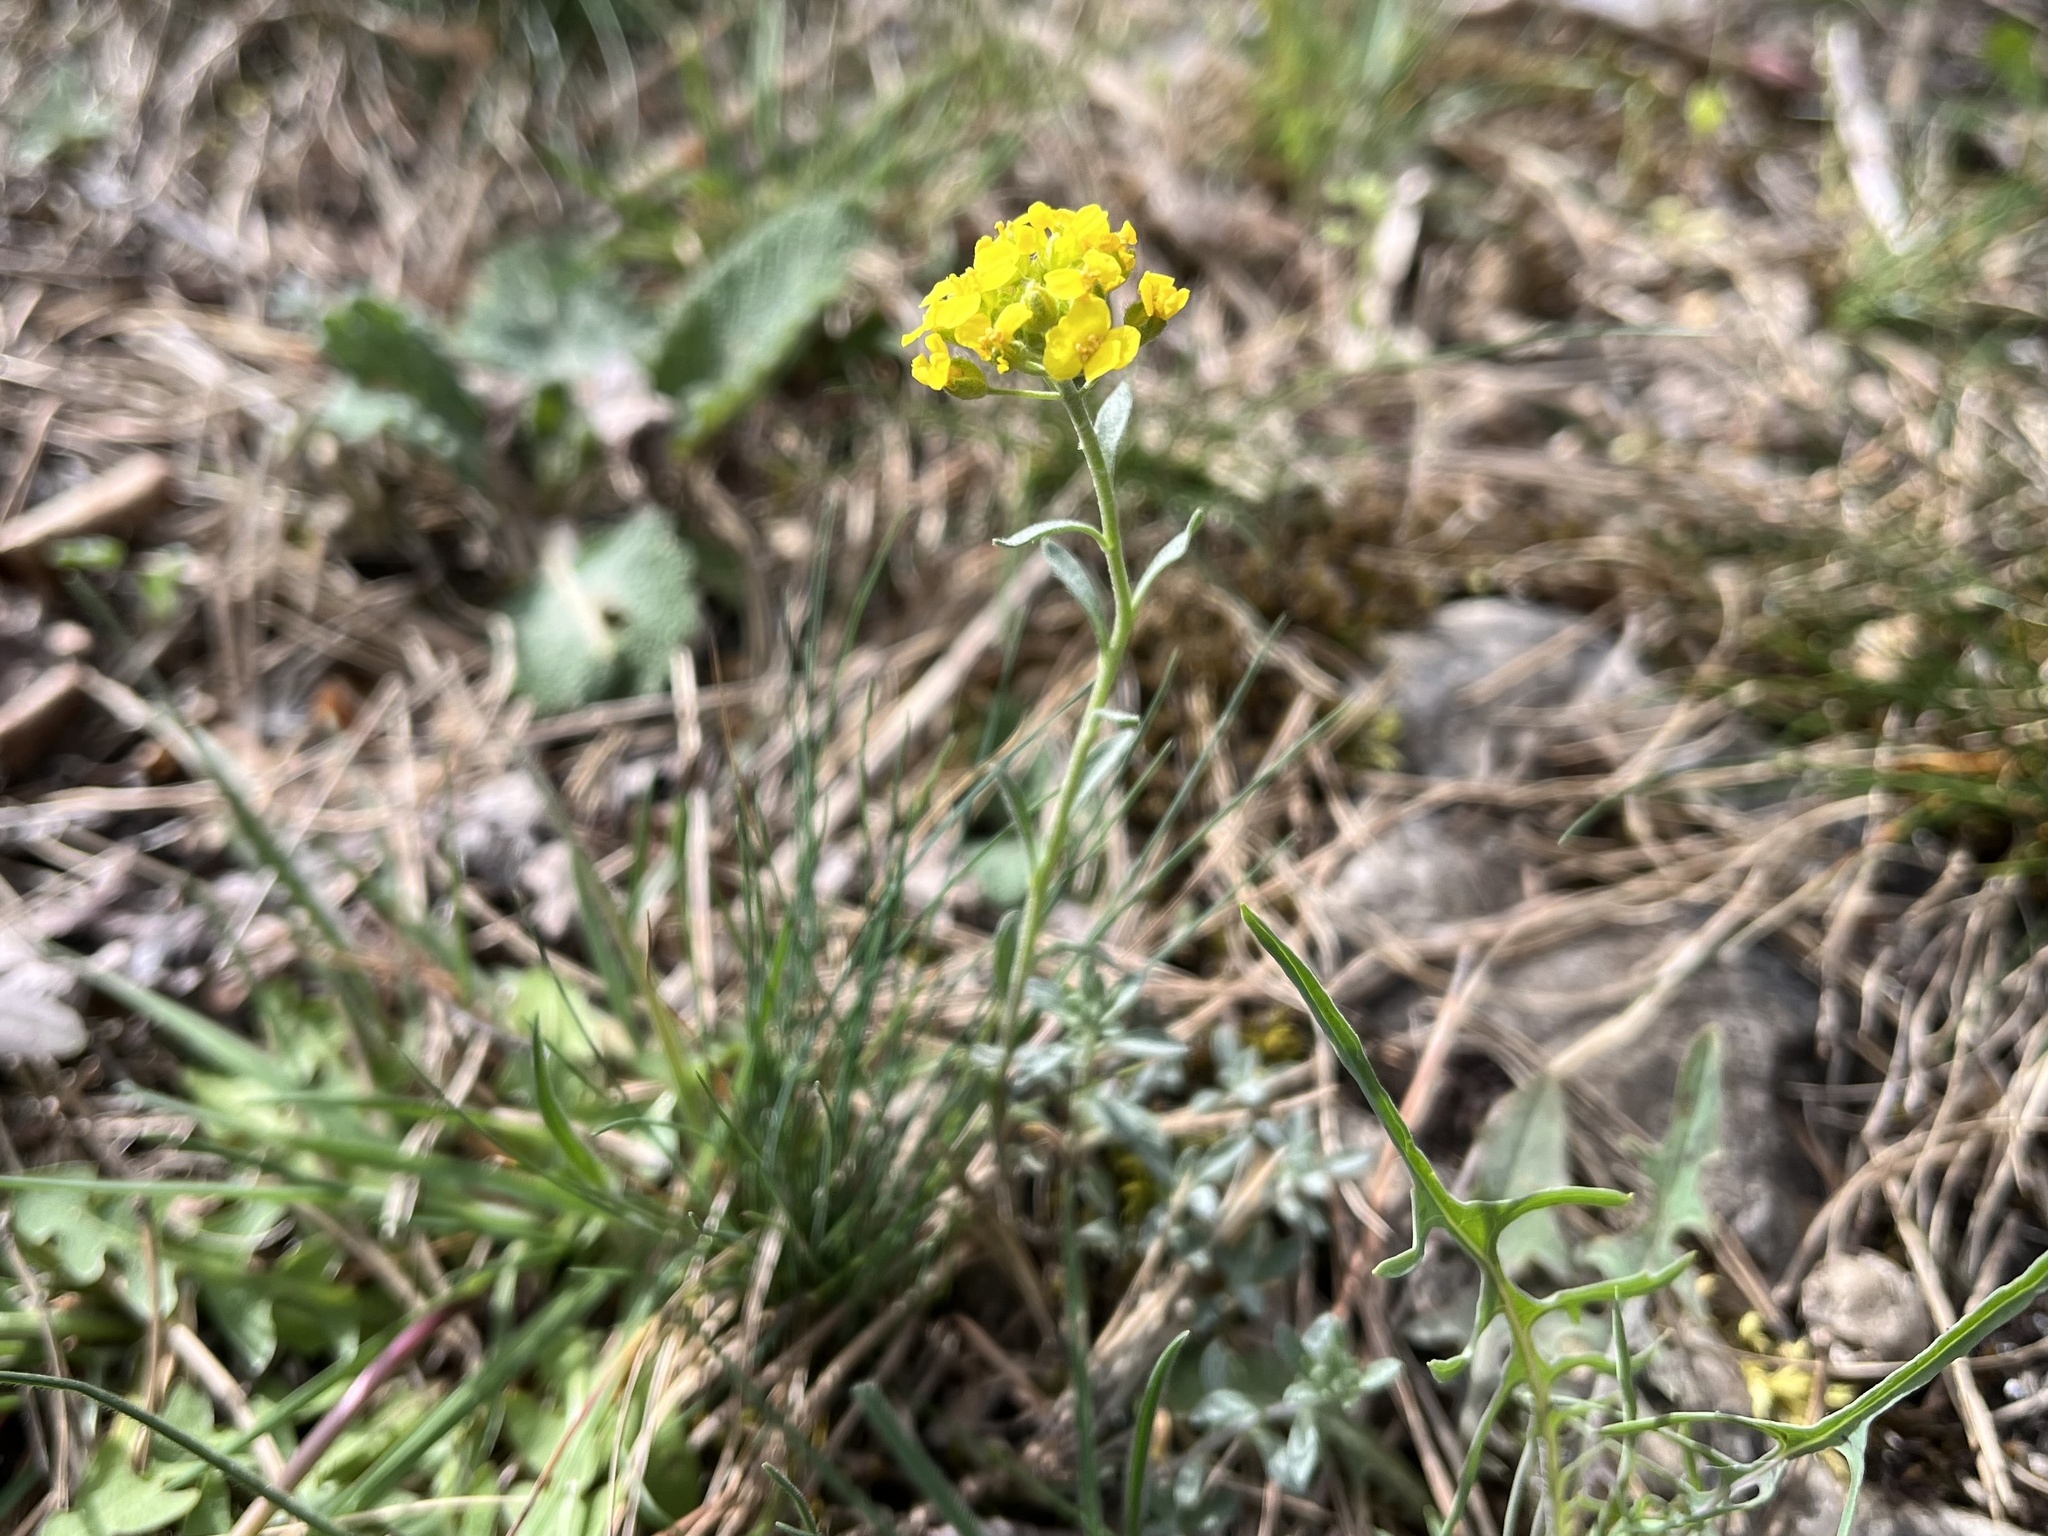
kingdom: Plantae
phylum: Tracheophyta
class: Magnoliopsida
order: Brassicales
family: Brassicaceae
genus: Alyssum
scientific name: Alyssum gmelinii
